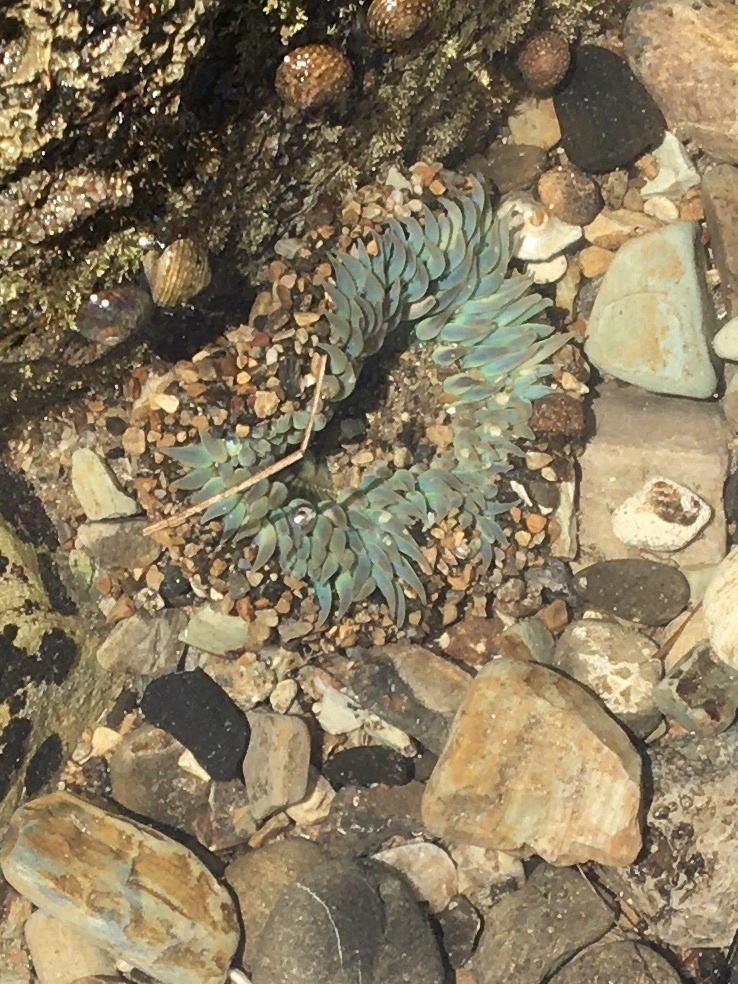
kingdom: Animalia
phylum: Cnidaria
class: Anthozoa
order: Actiniaria
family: Actiniidae
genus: Anthopleura
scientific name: Anthopleura sola
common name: Sun anemone
